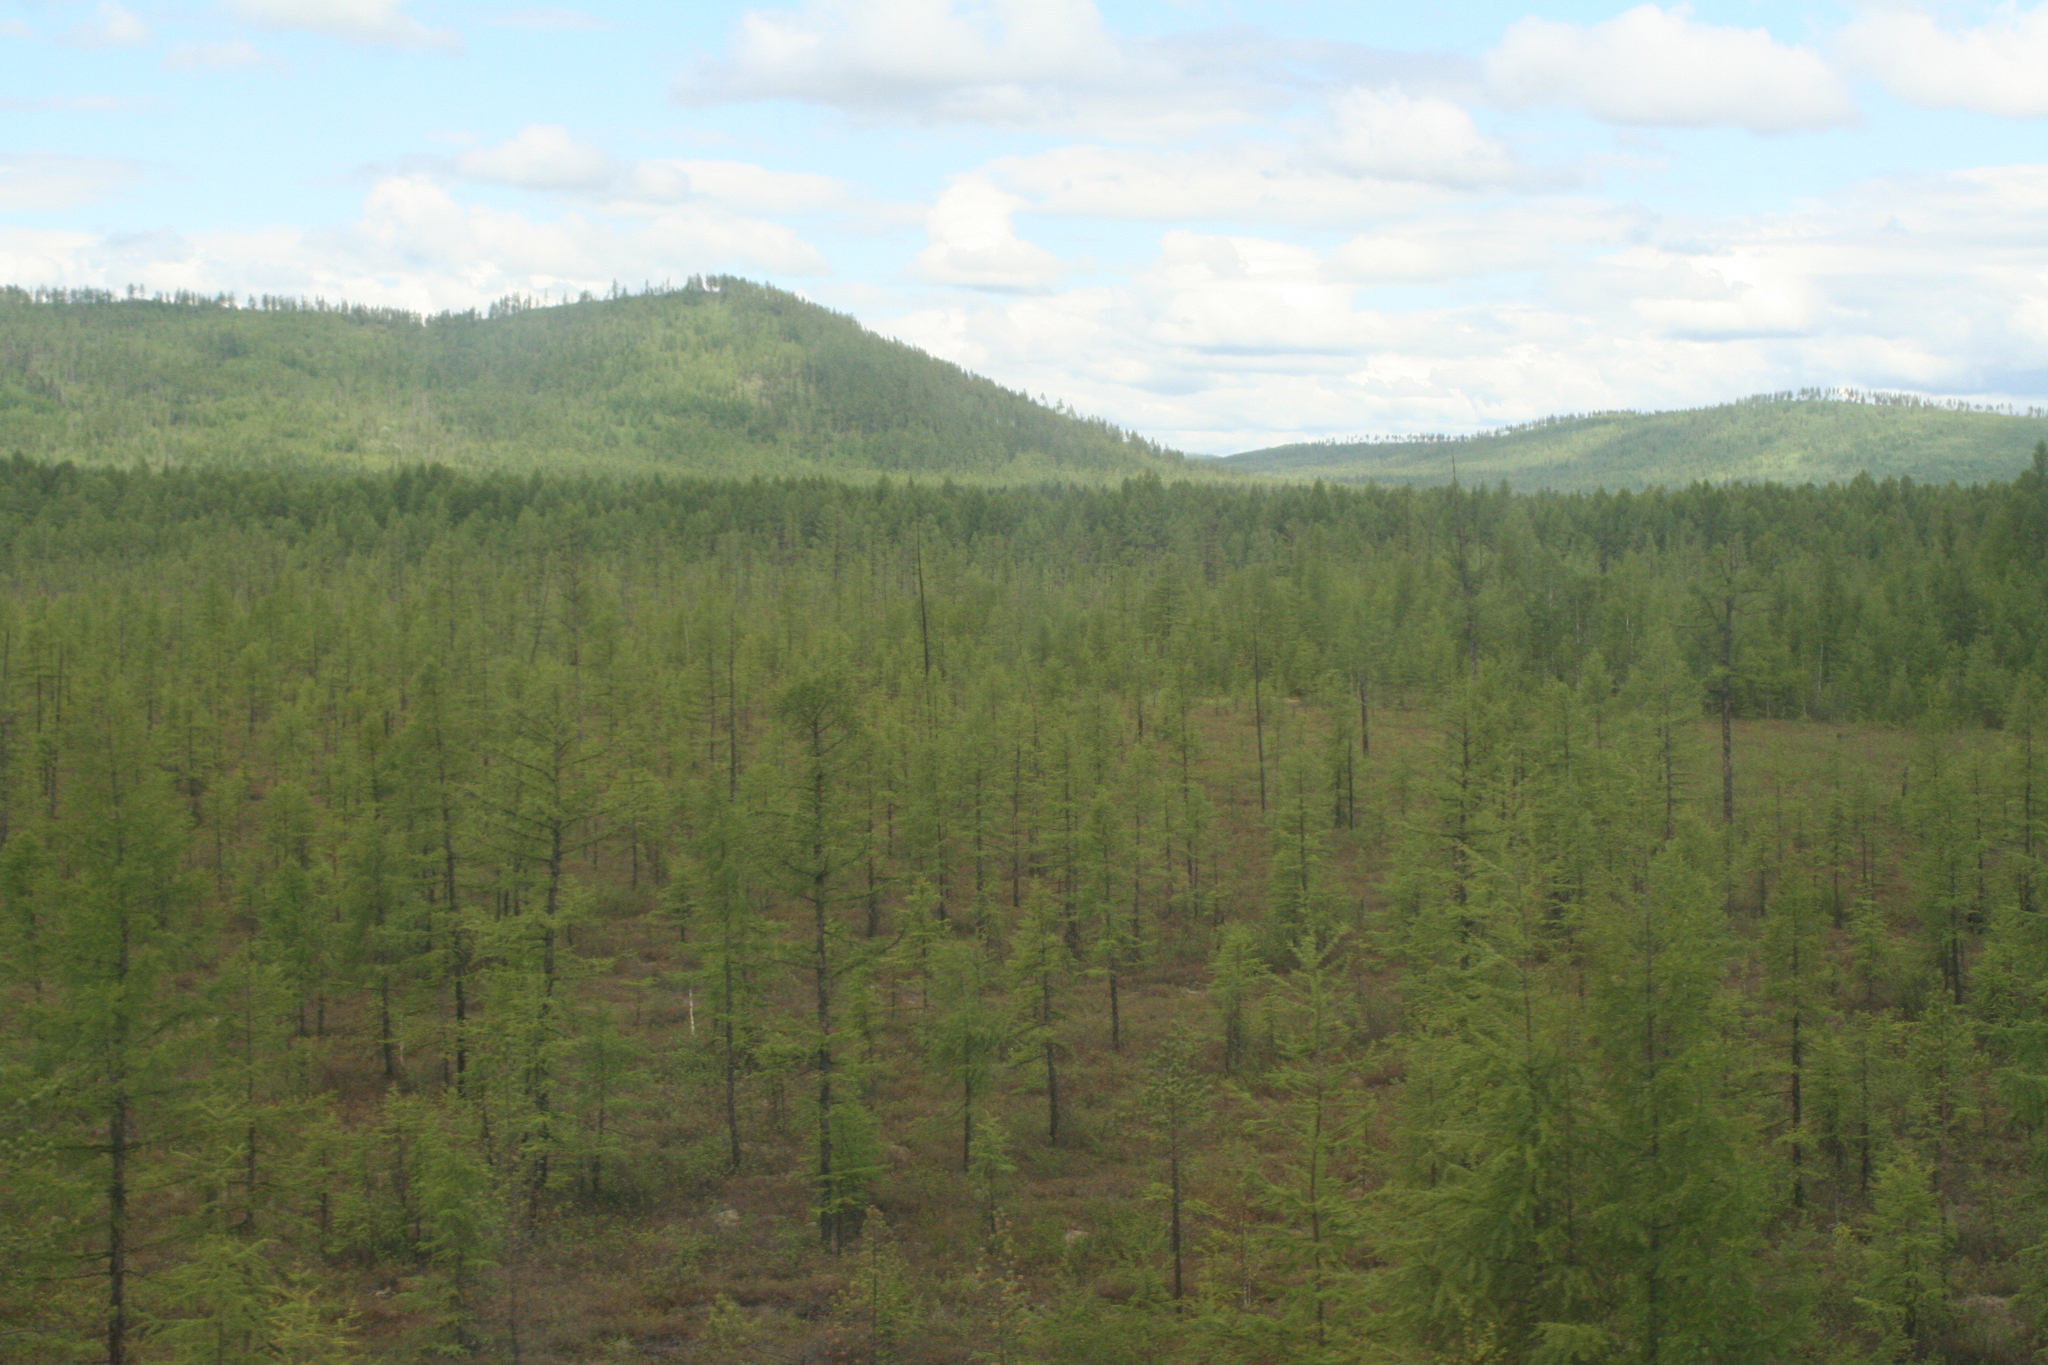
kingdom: Plantae
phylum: Tracheophyta
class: Pinopsida
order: Pinales
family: Pinaceae
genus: Larix
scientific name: Larix gmelinii
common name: Dahurian larch
